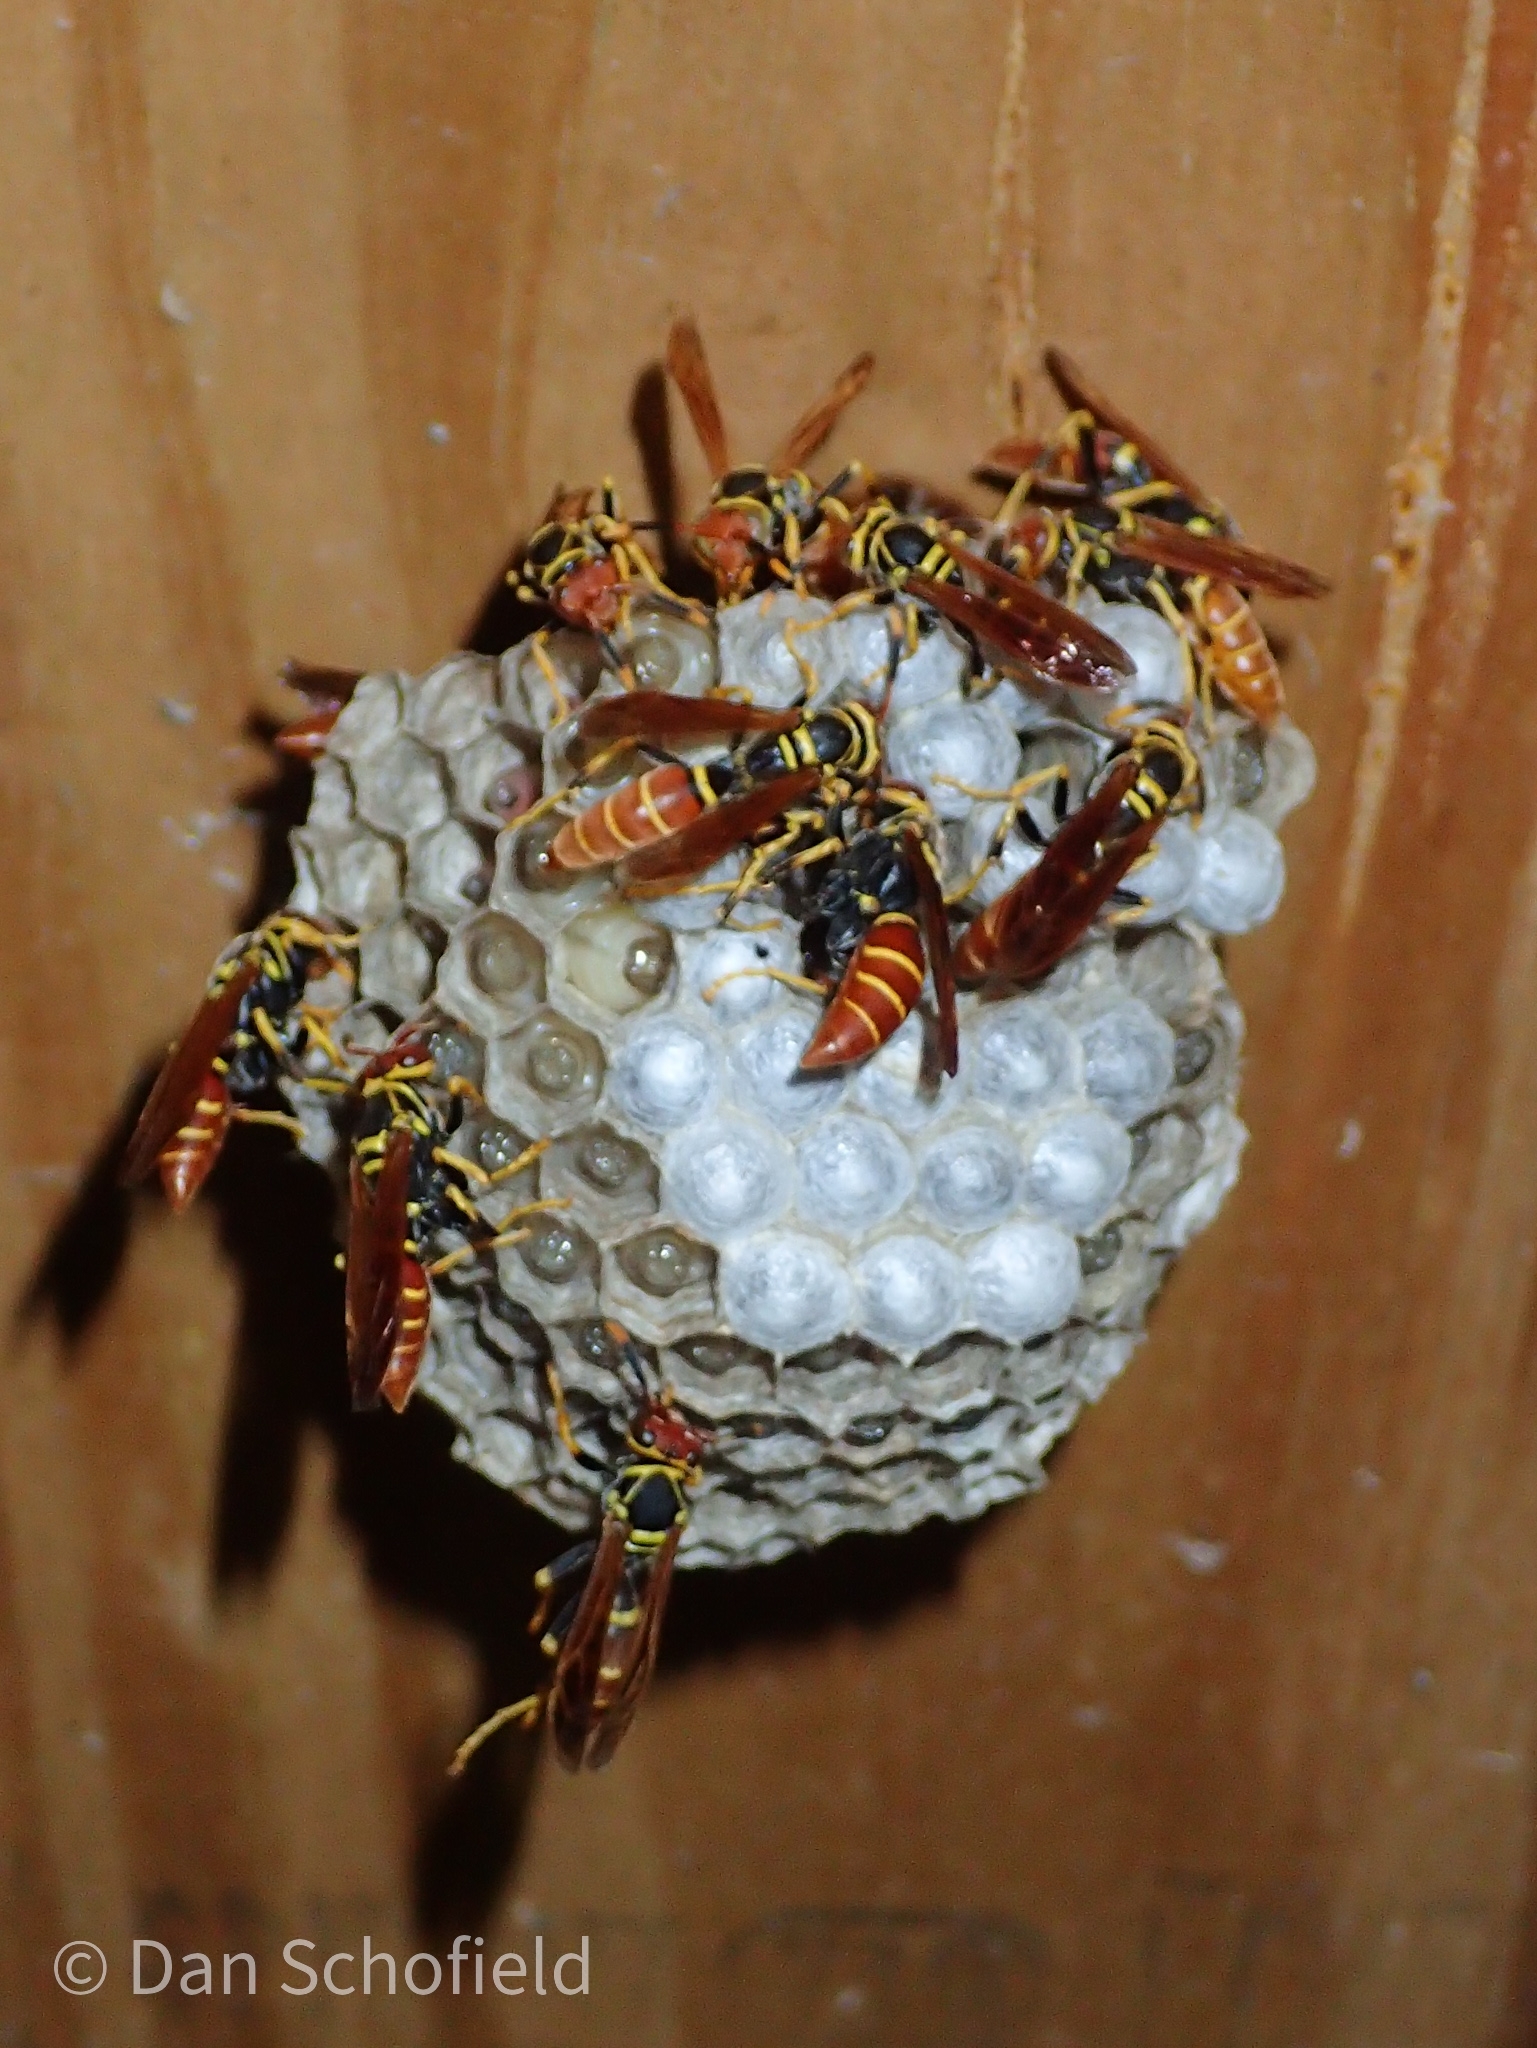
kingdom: Animalia
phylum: Arthropoda
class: Insecta
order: Hymenoptera
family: Eumenidae
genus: Polistes
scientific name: Polistes crinitus
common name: Jack spaniard
